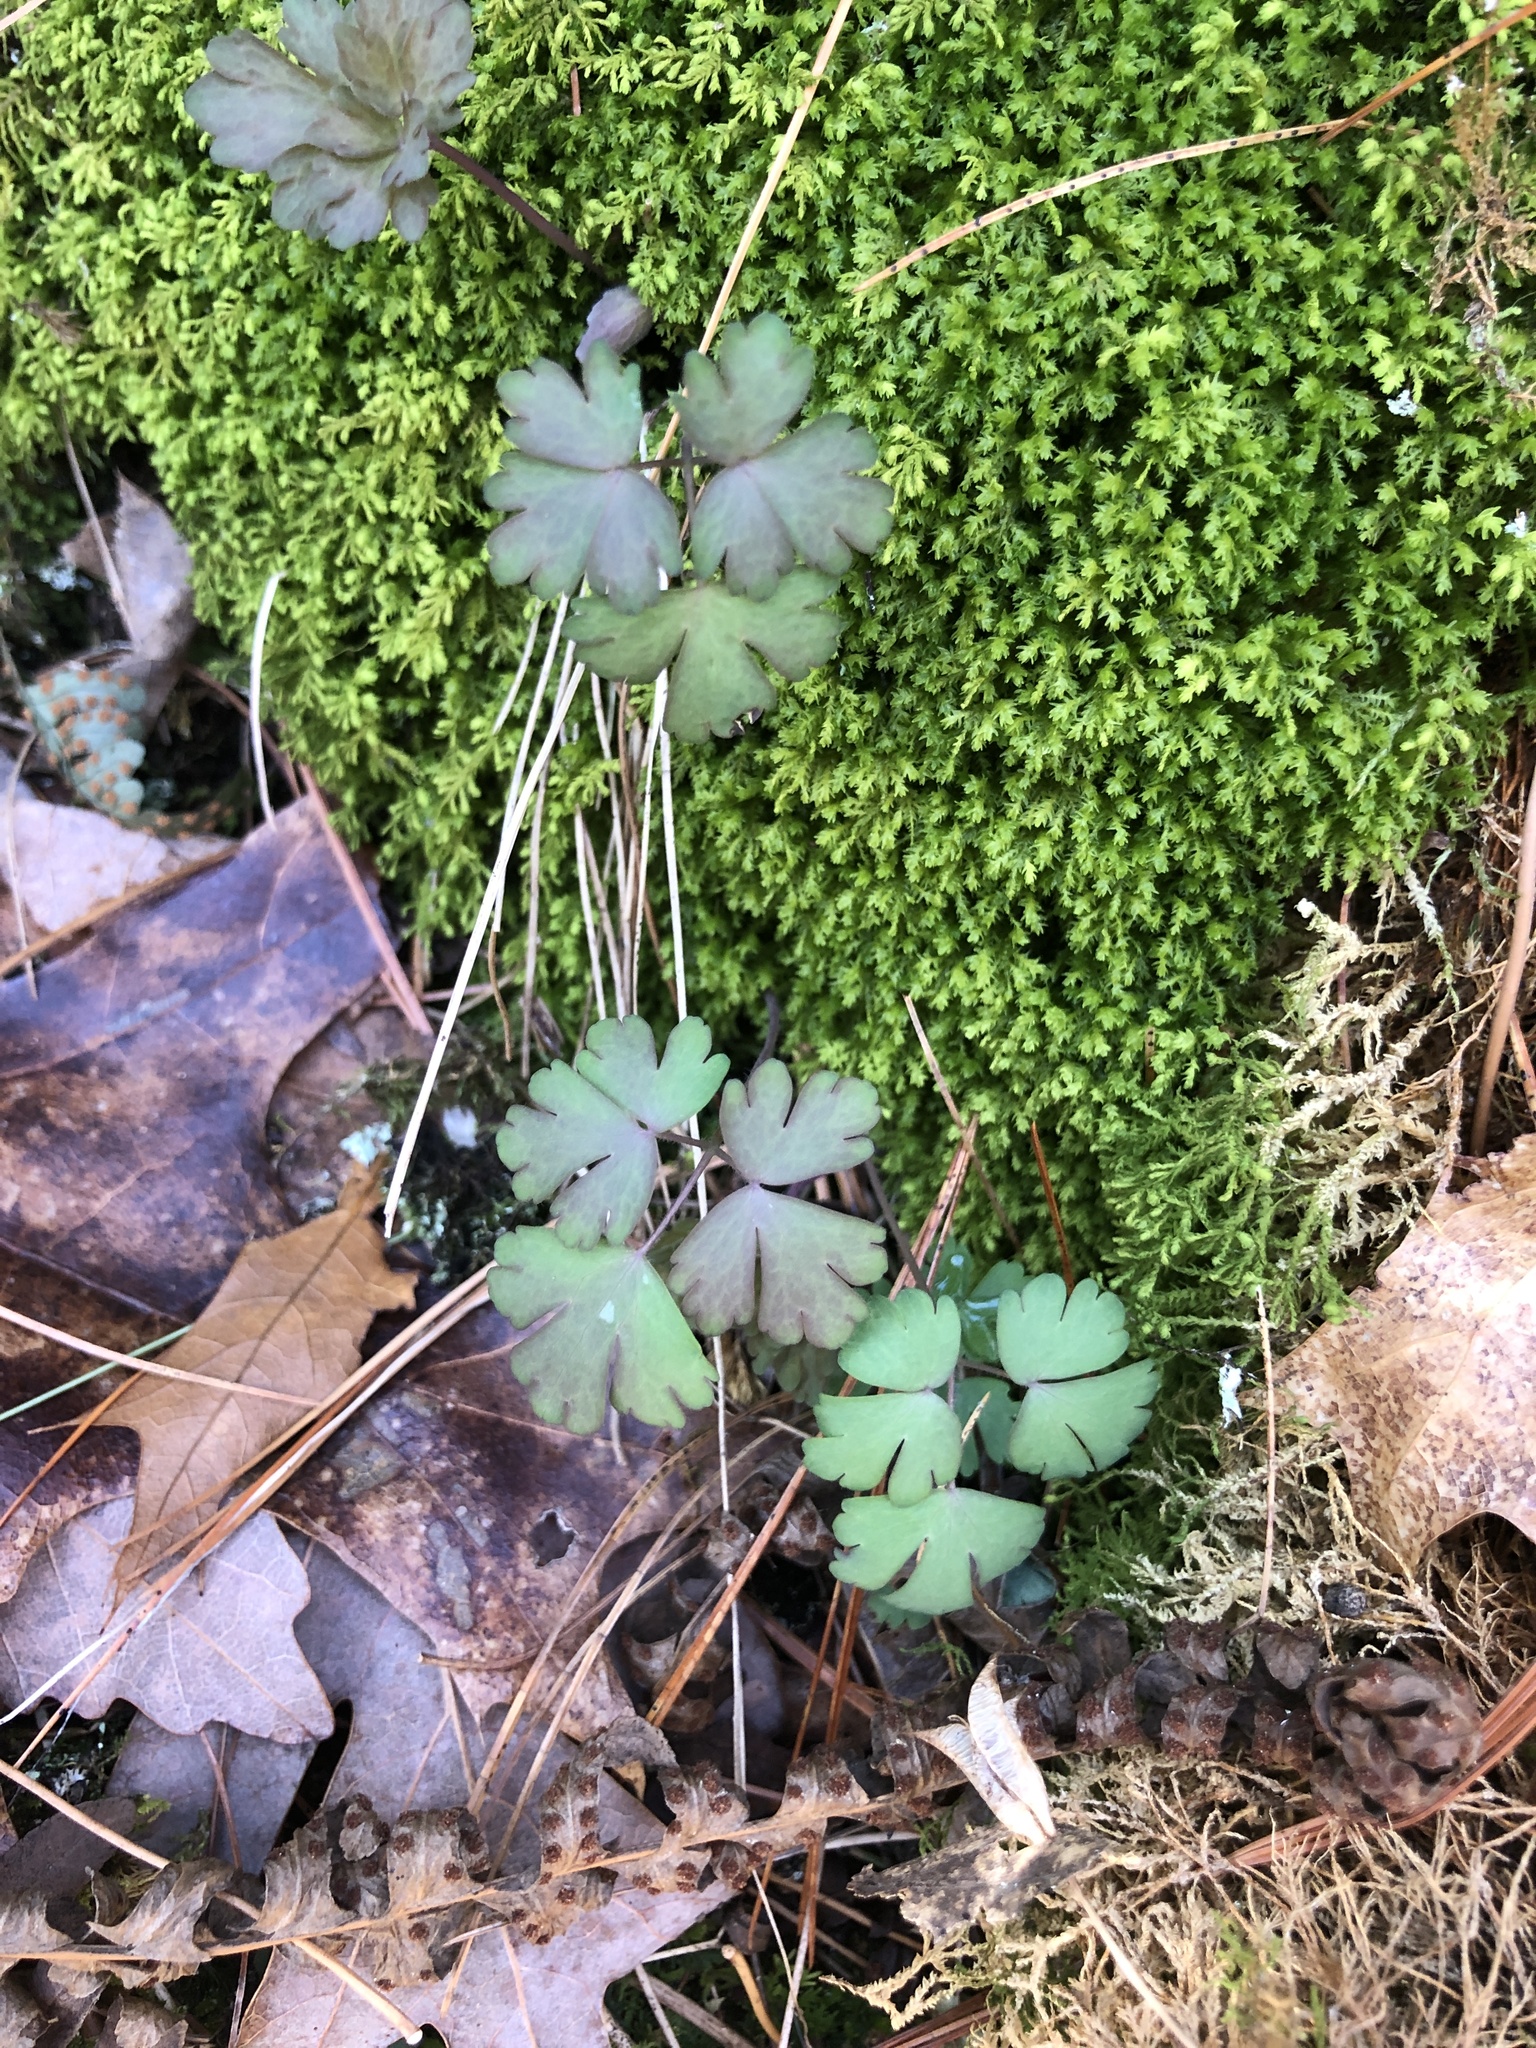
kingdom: Plantae
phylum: Tracheophyta
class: Magnoliopsida
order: Ranunculales
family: Ranunculaceae
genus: Aquilegia
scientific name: Aquilegia canadensis
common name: American columbine
